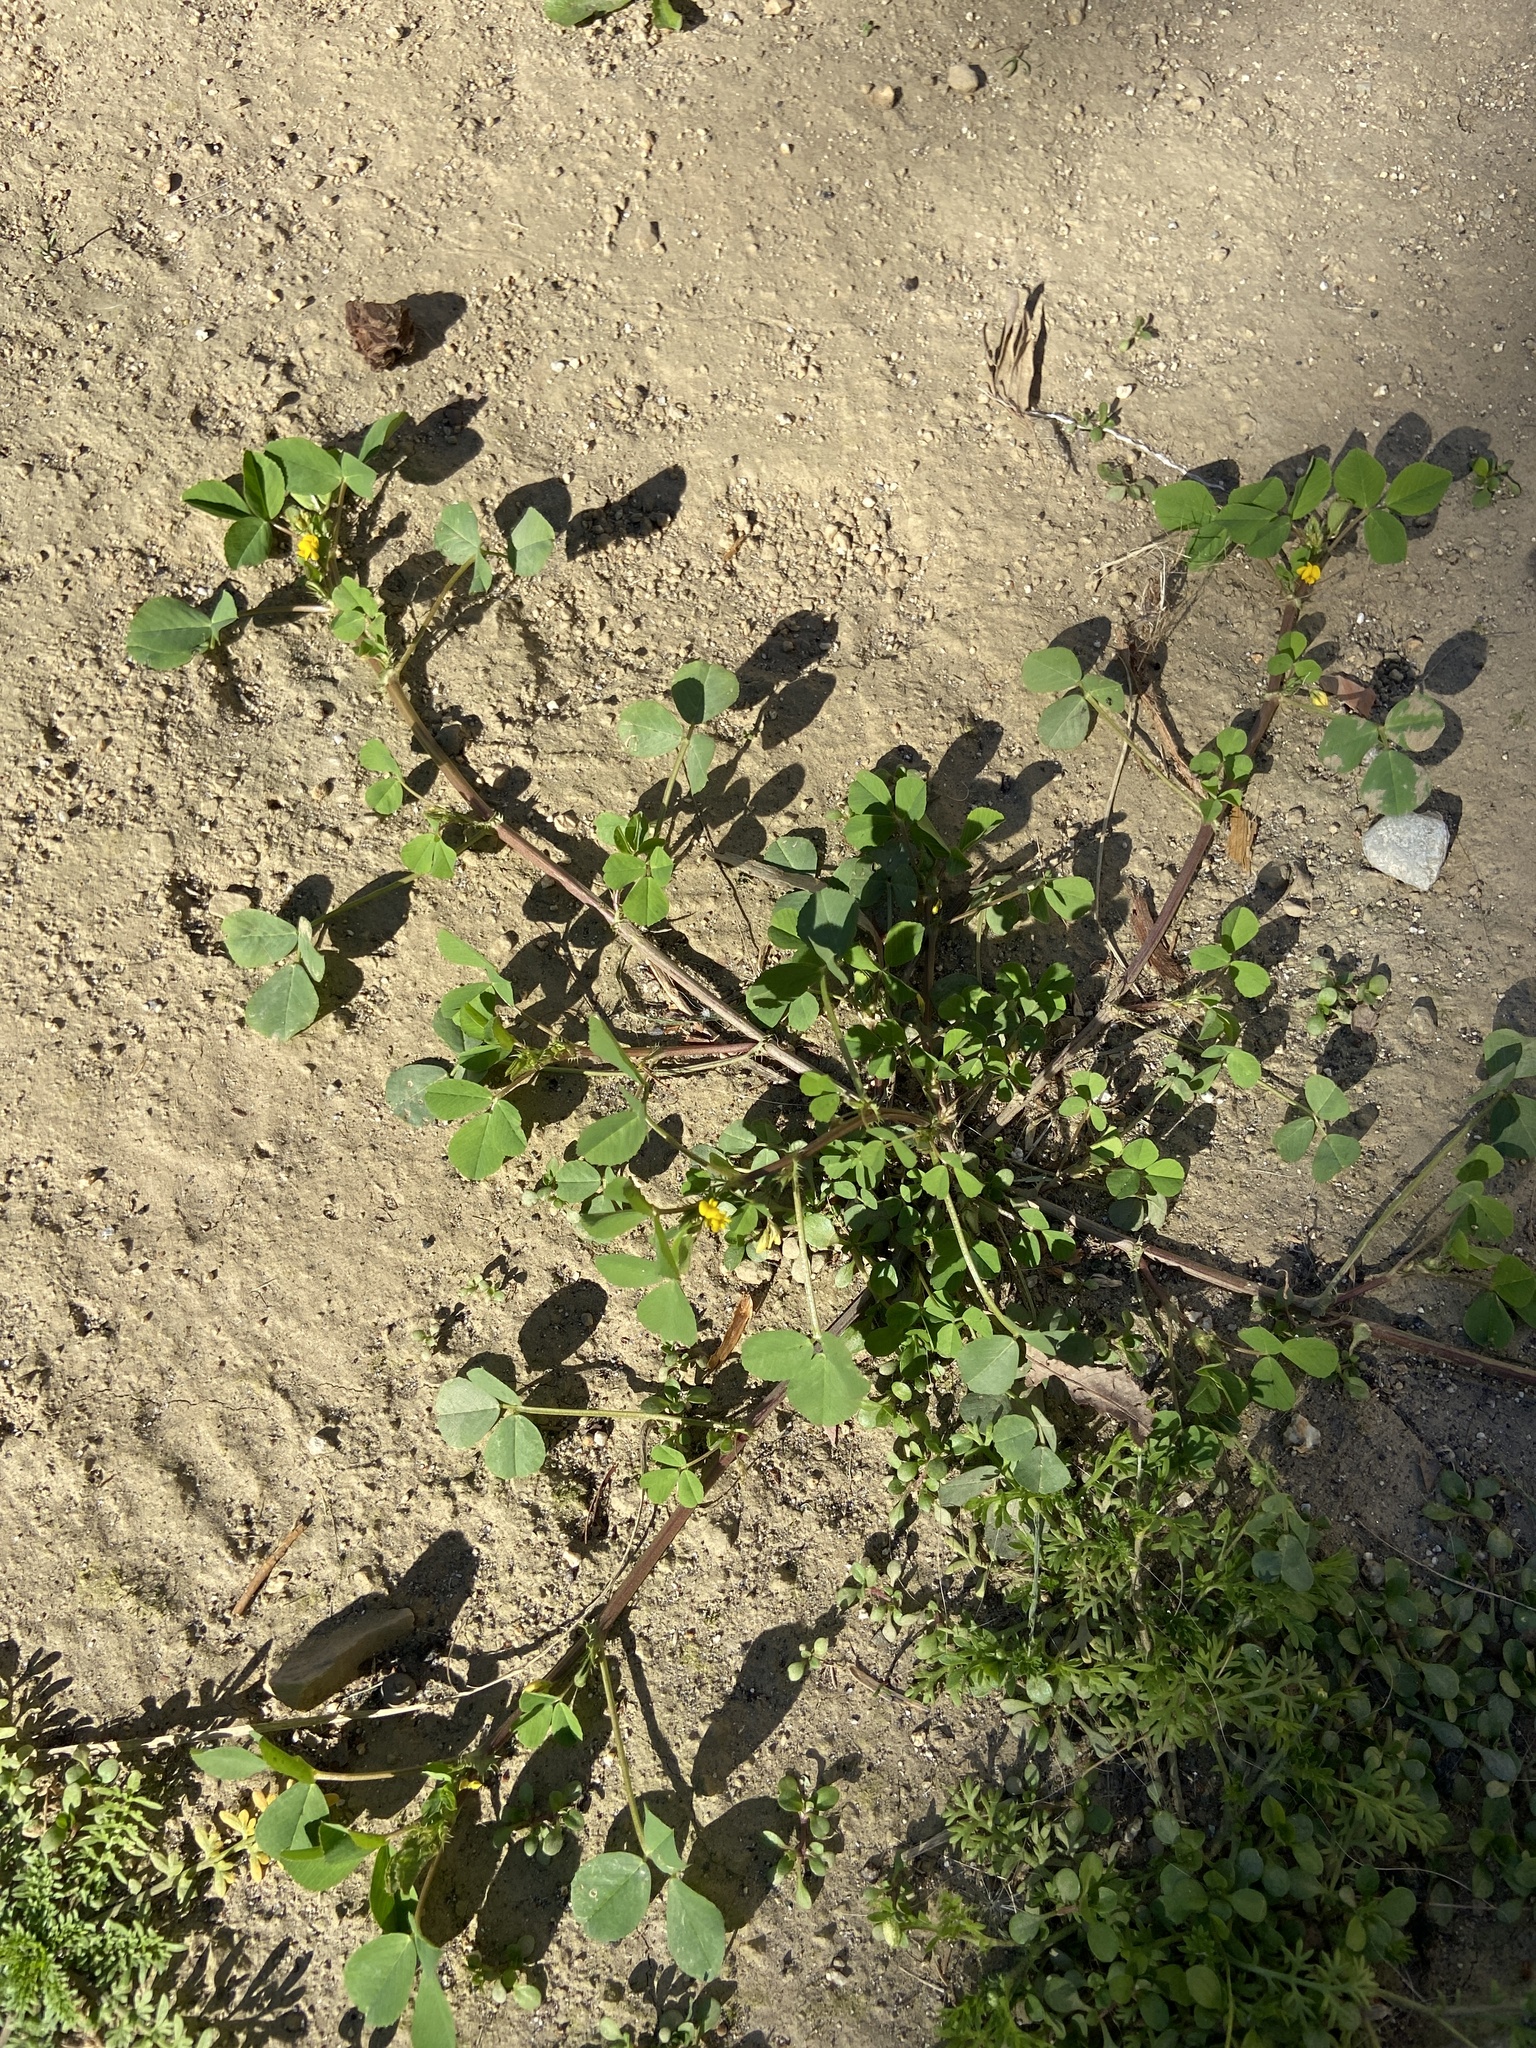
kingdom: Plantae
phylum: Tracheophyta
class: Magnoliopsida
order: Fabales
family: Fabaceae
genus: Medicago
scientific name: Medicago polymorpha
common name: Burclover
